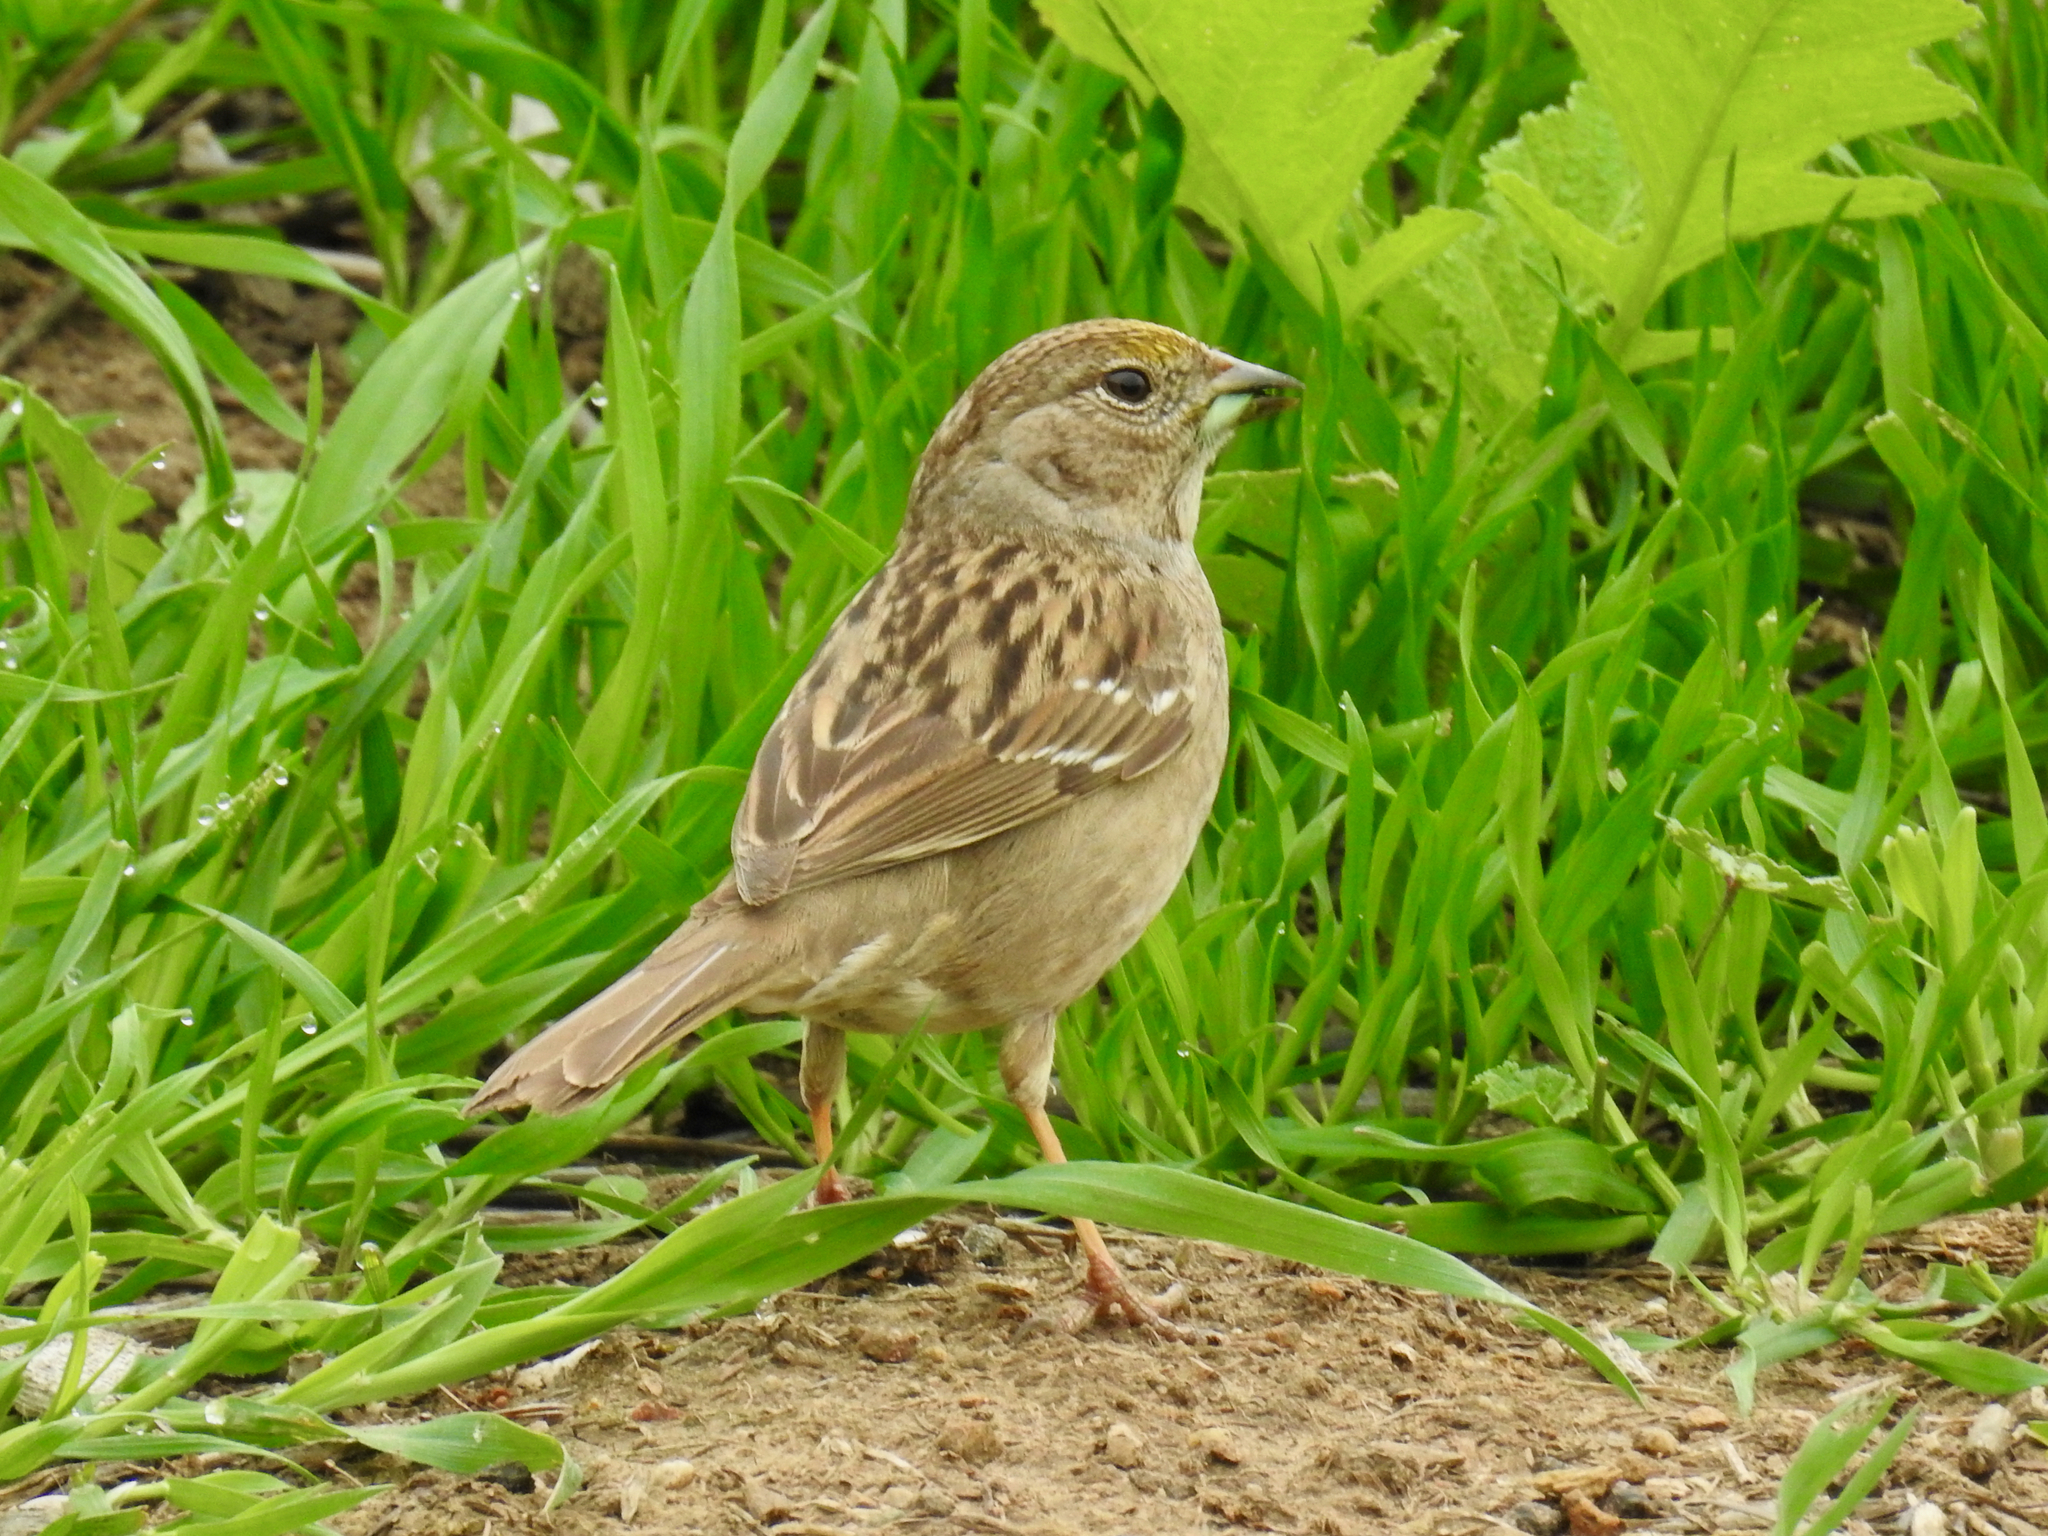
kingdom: Animalia
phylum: Chordata
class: Aves
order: Passeriformes
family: Passerellidae
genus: Zonotrichia
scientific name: Zonotrichia atricapilla
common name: Golden-crowned sparrow
